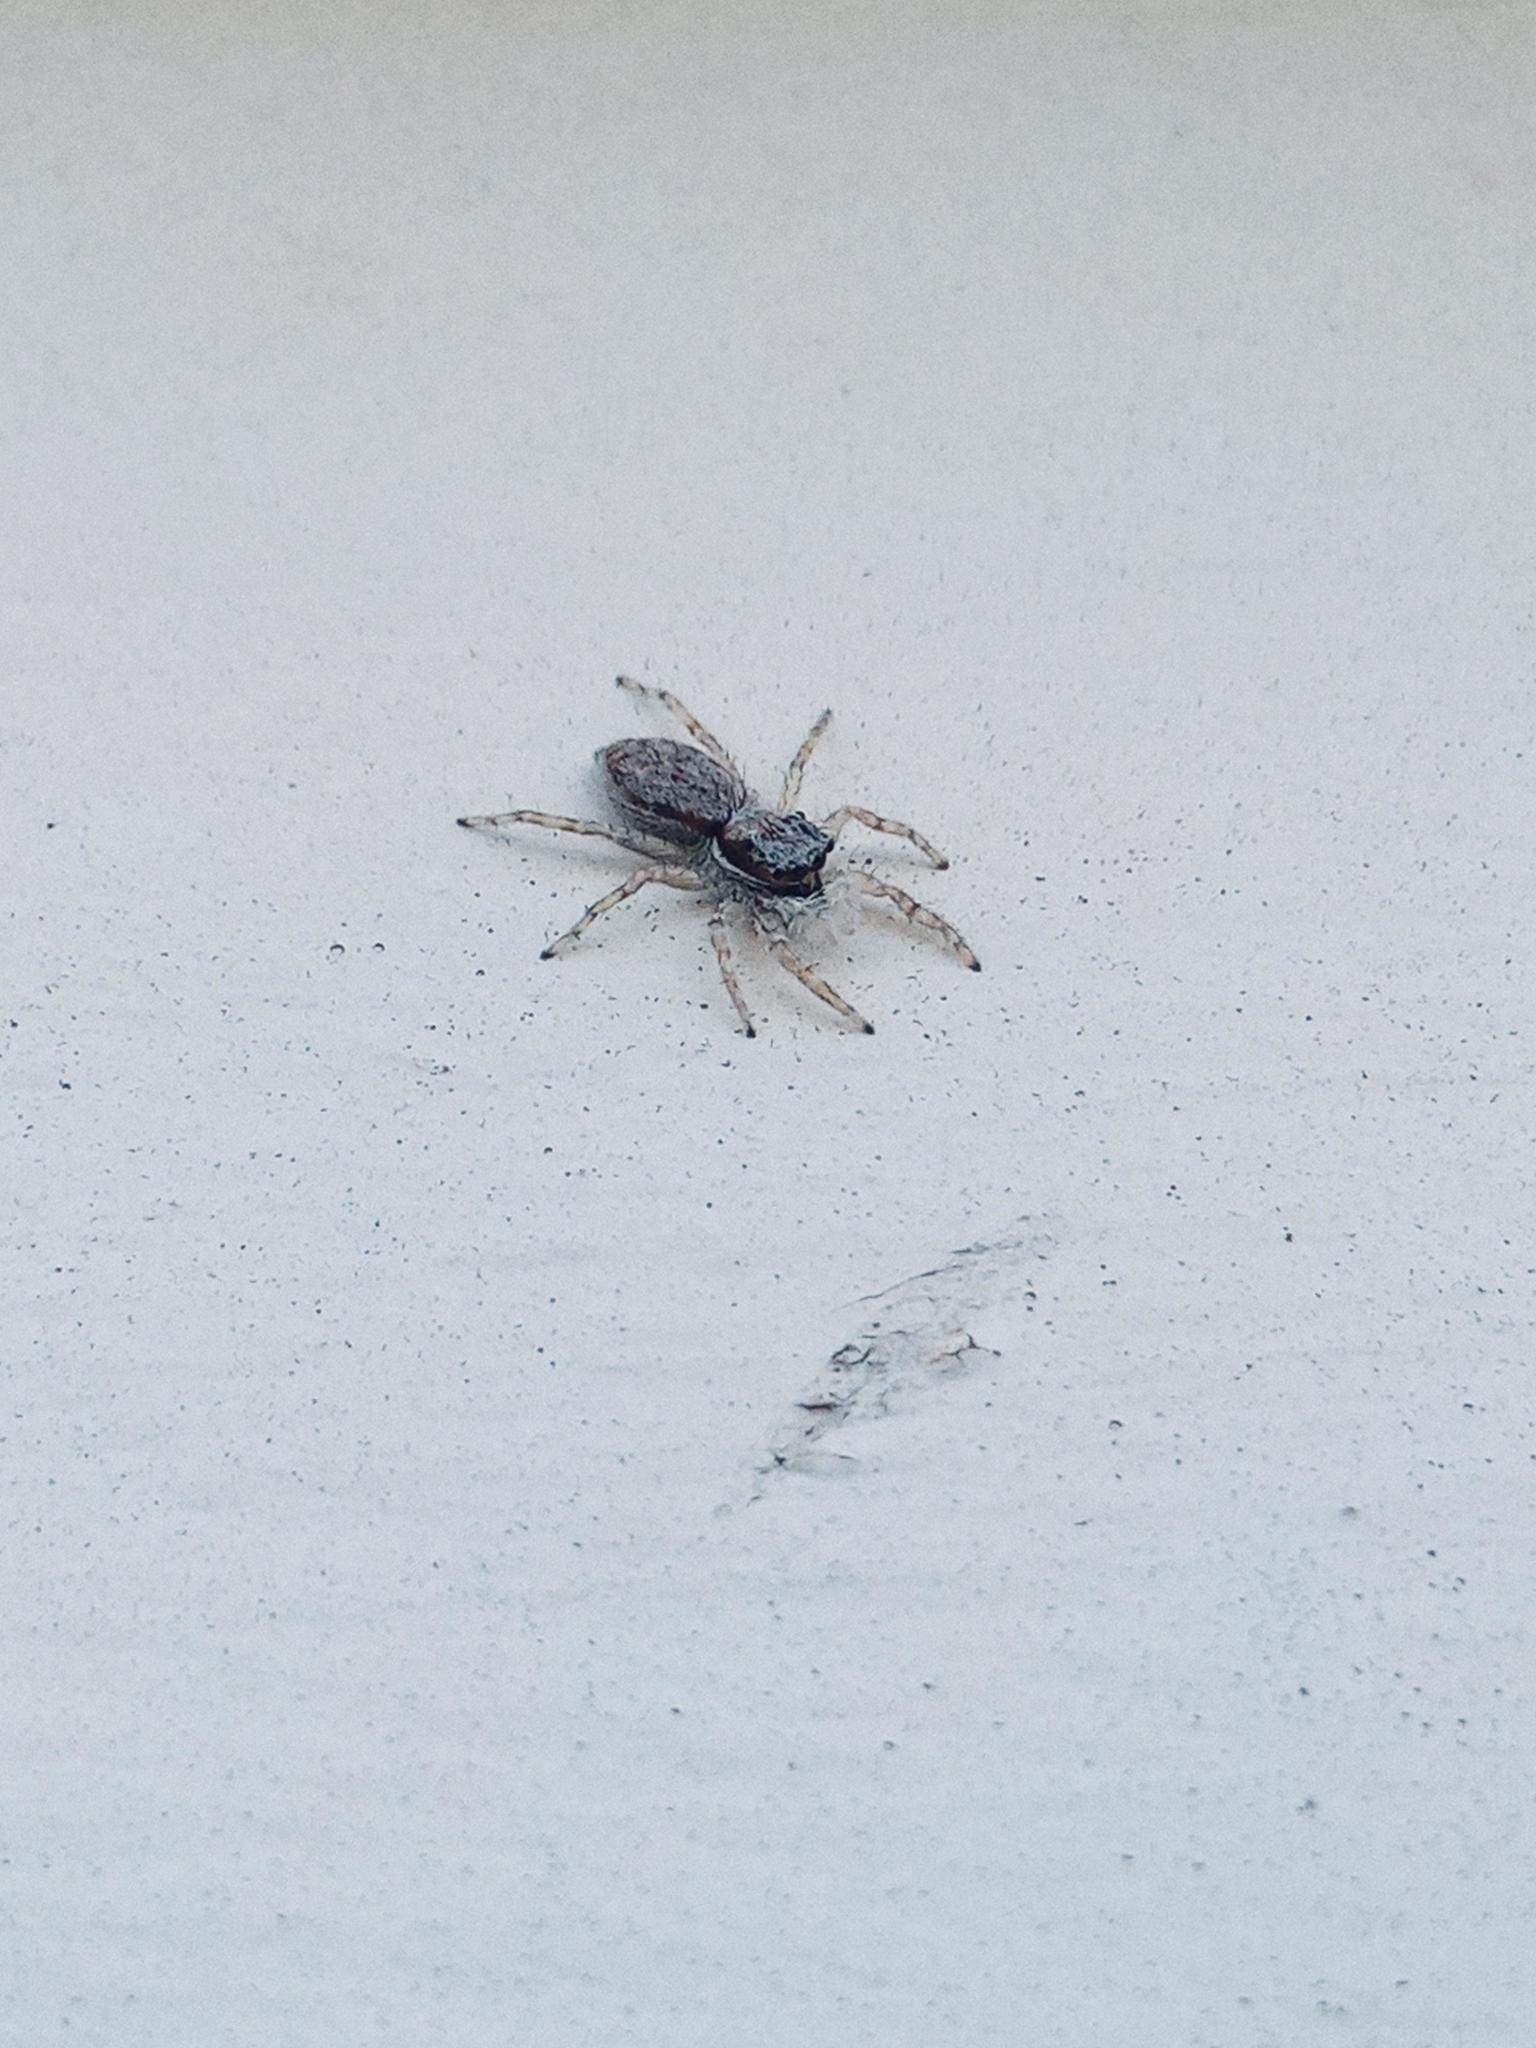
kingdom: Animalia
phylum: Arthropoda
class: Arachnida
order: Araneae
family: Salticidae
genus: Menemerus
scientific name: Menemerus bivittatus
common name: Gray wall jumper
